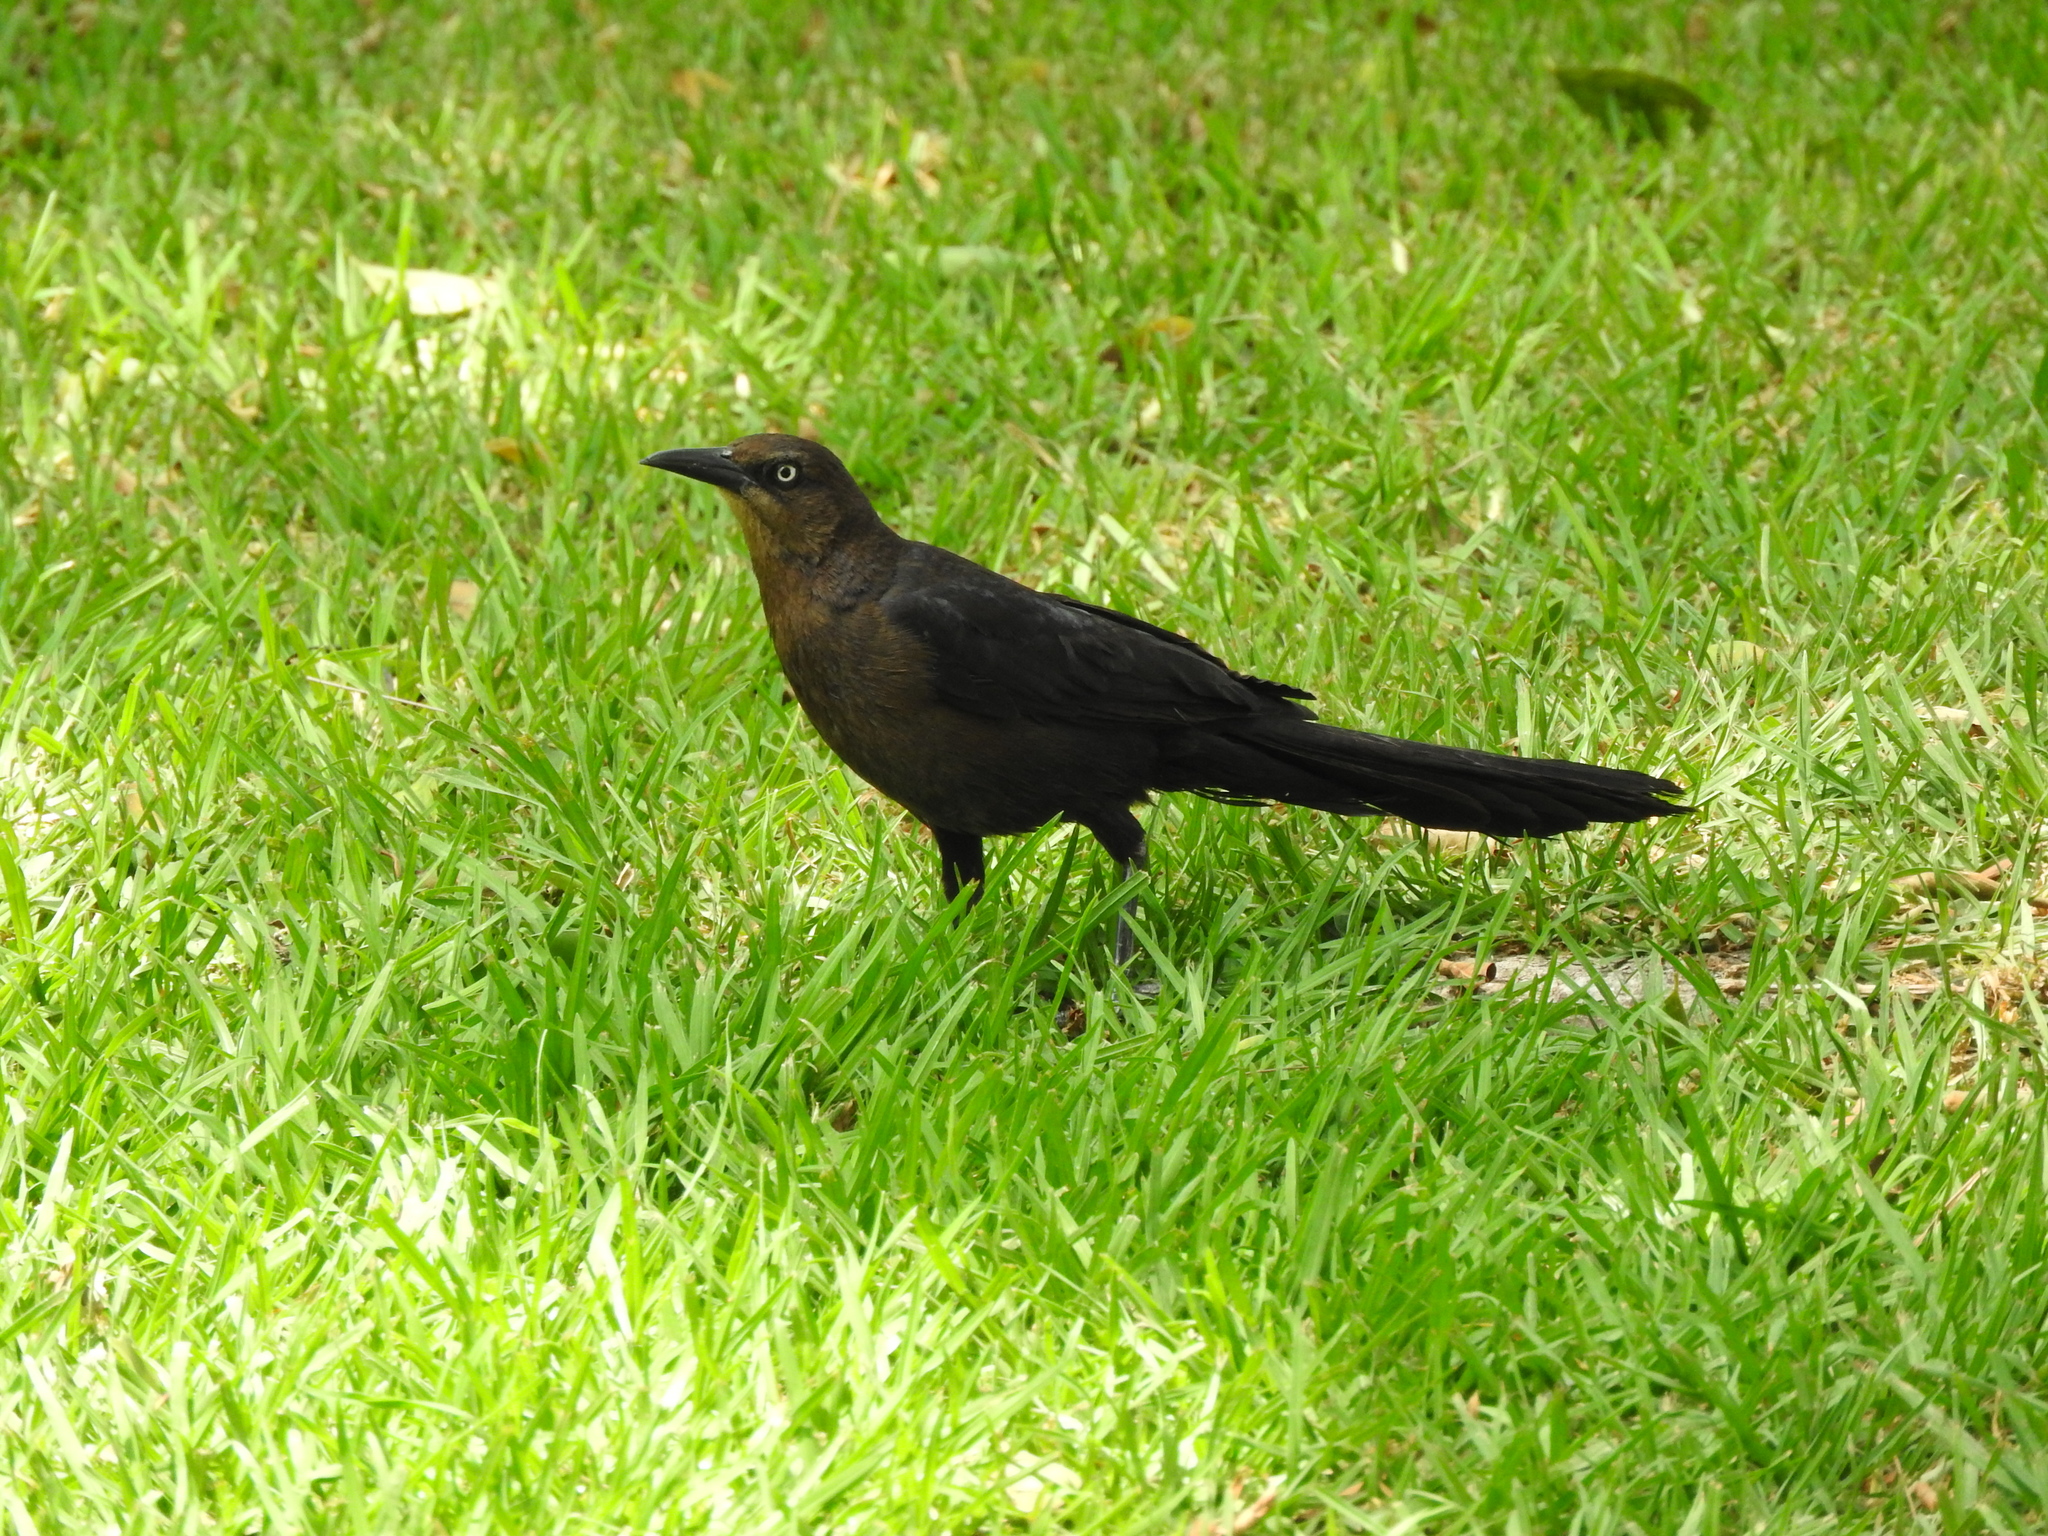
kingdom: Animalia
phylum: Chordata
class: Aves
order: Passeriformes
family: Icteridae
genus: Quiscalus
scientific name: Quiscalus mexicanus
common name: Great-tailed grackle
